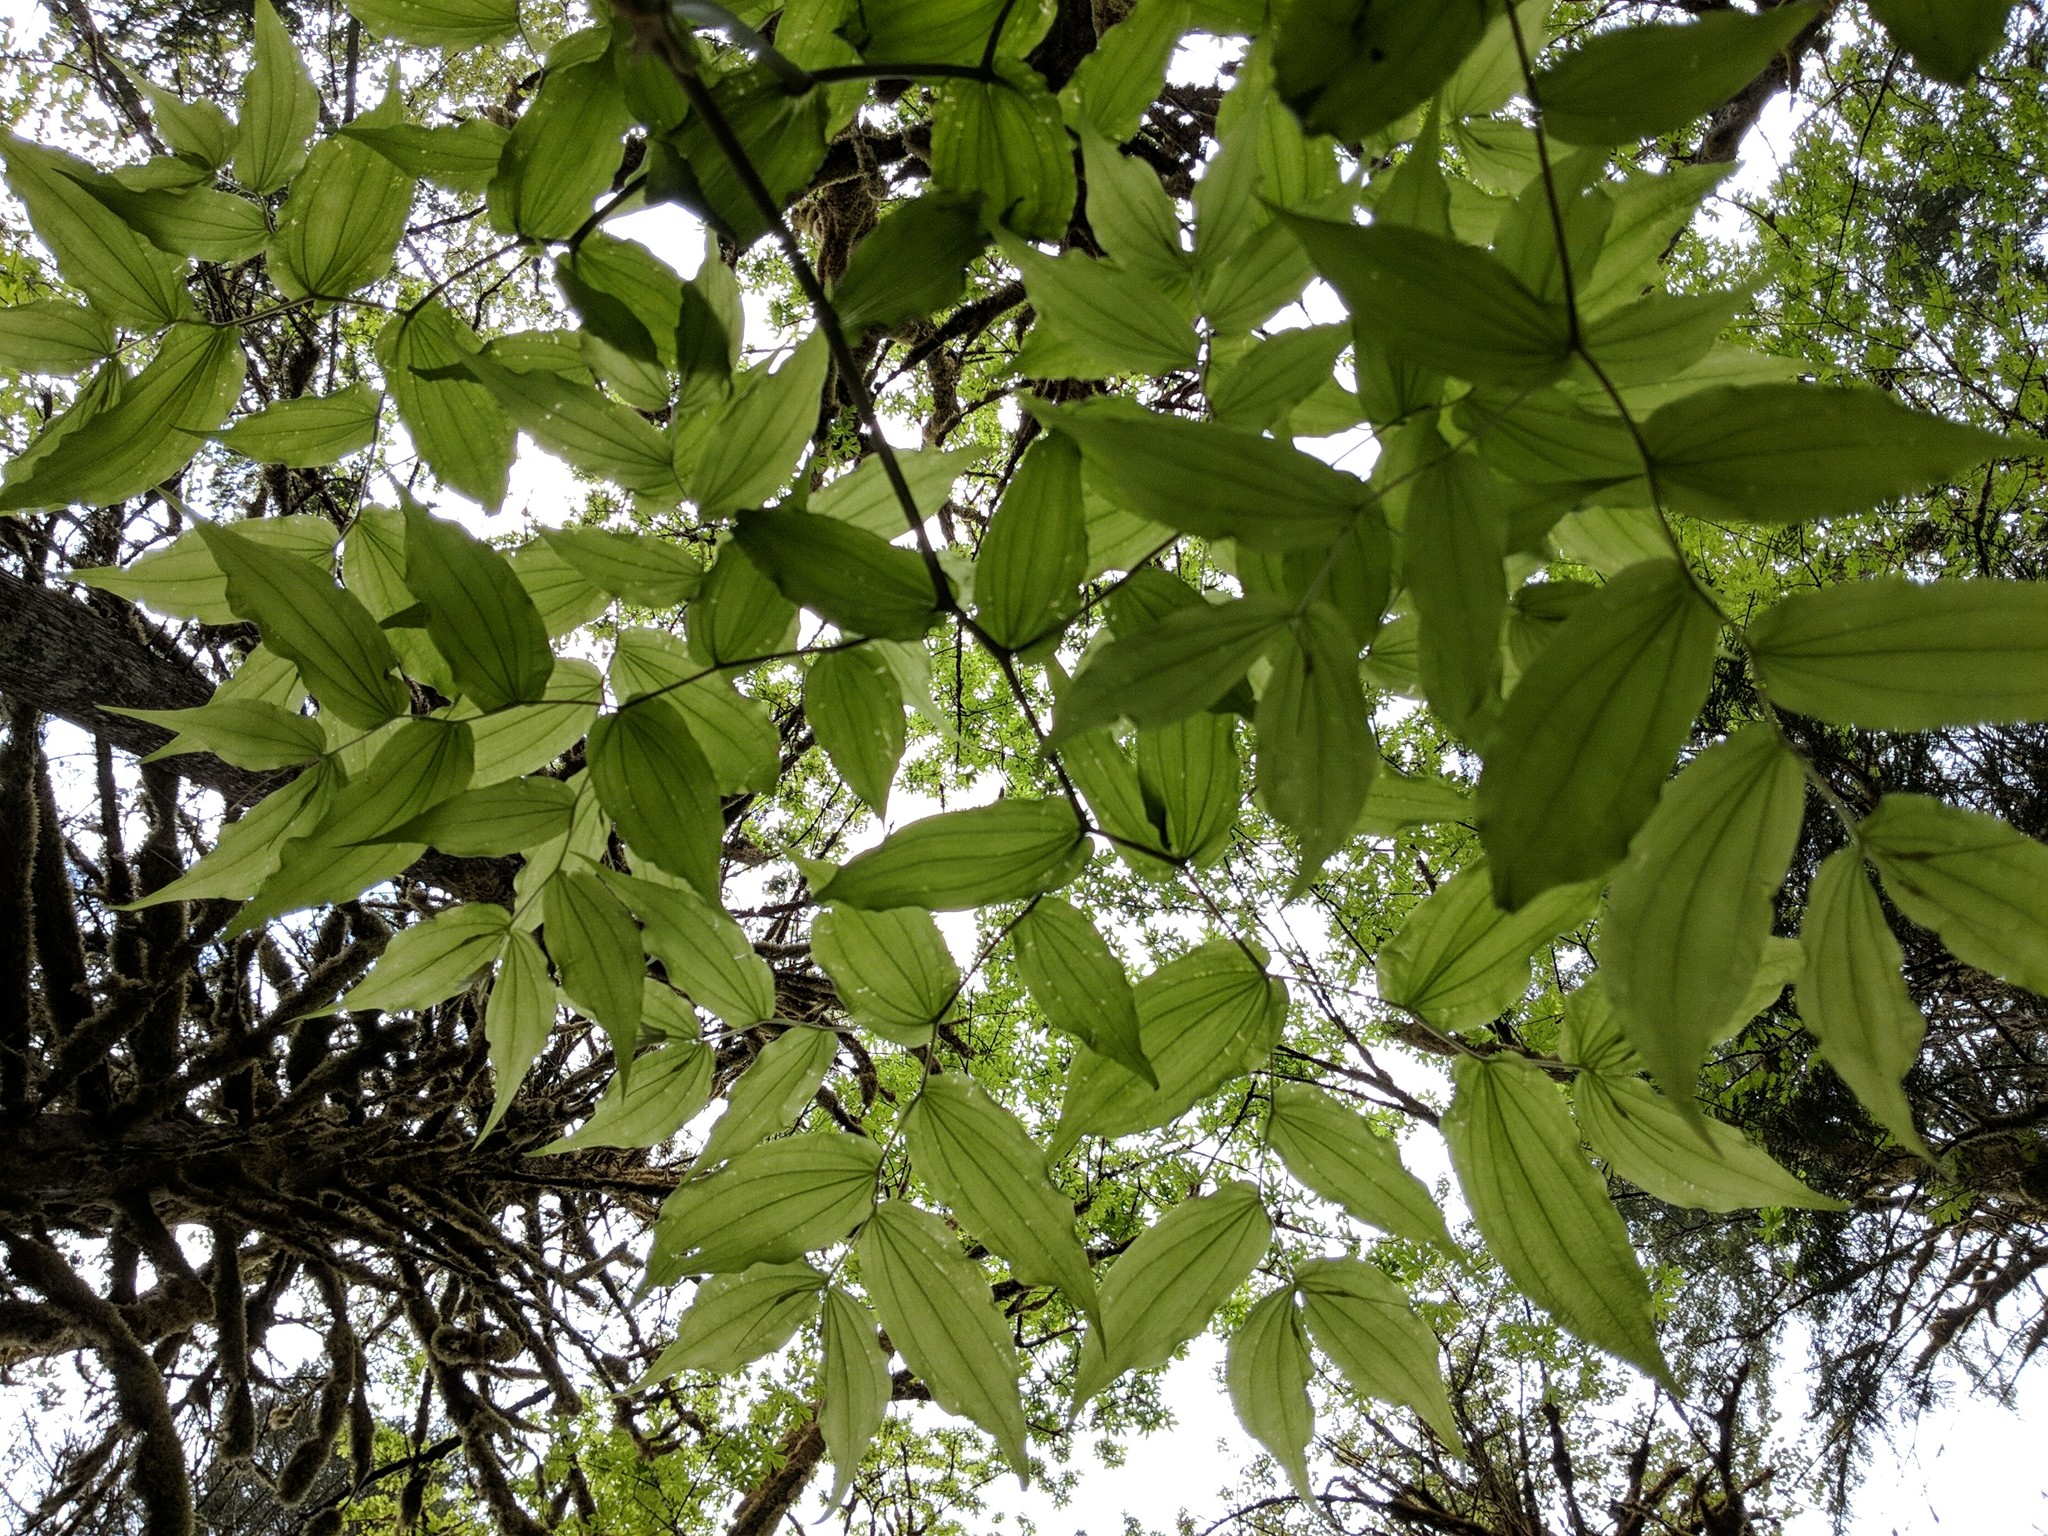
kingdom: Plantae
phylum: Tracheophyta
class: Liliopsida
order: Liliales
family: Liliaceae
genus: Prosartes
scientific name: Prosartes hookeri
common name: Fairy-bells
